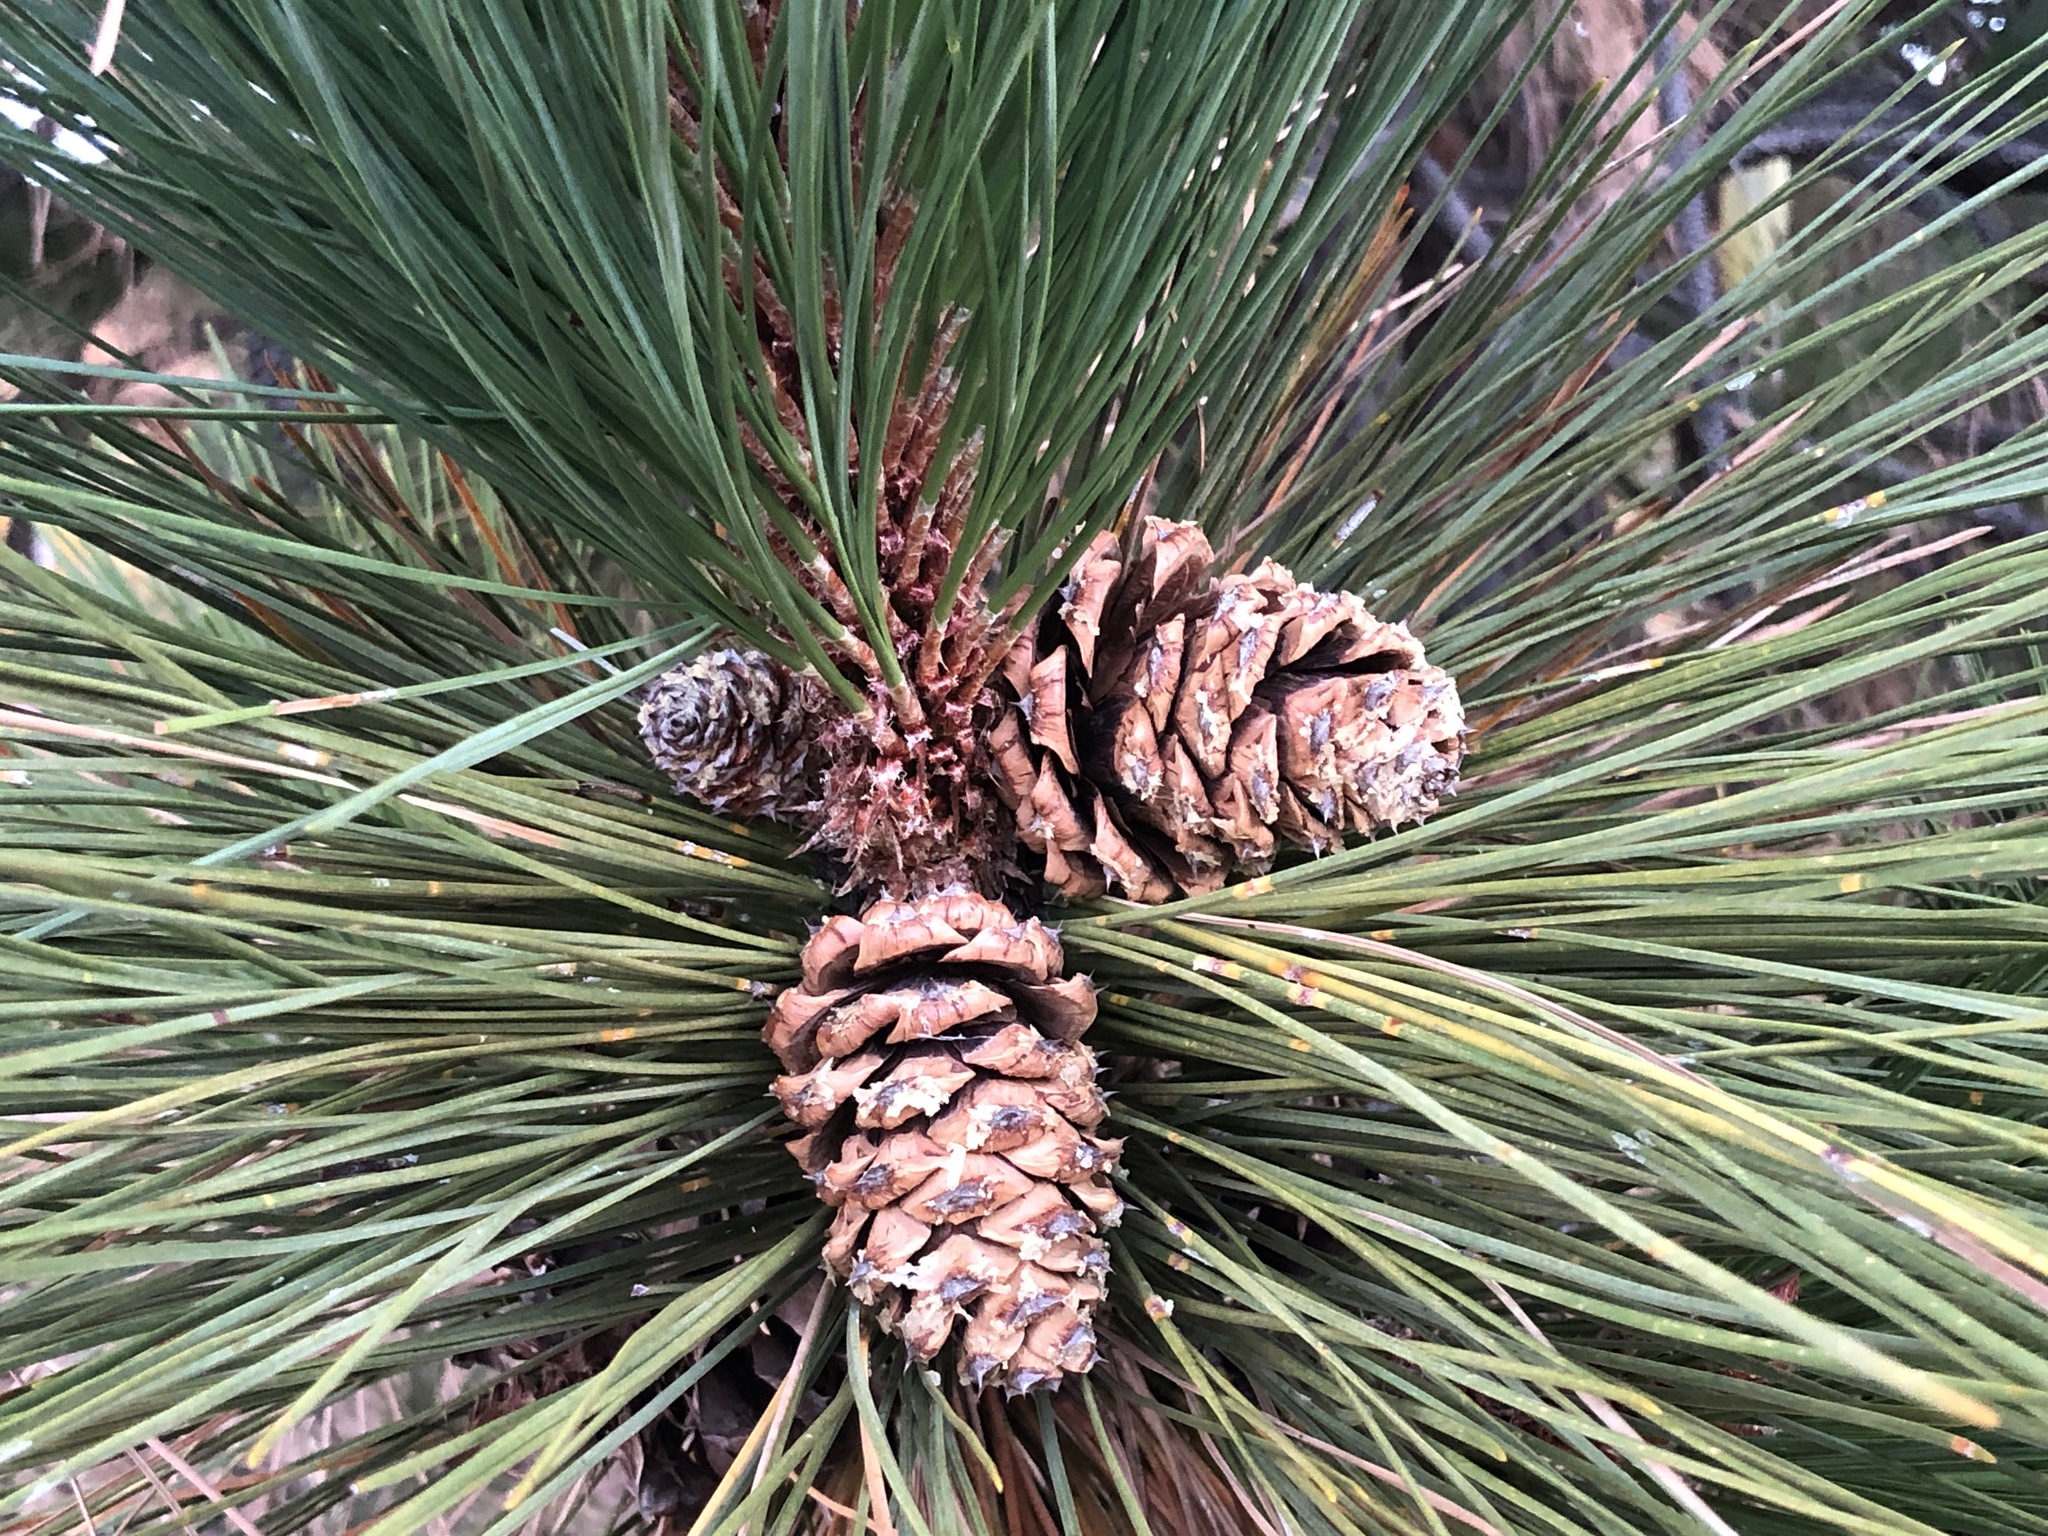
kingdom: Plantae
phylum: Tracheophyta
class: Pinopsida
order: Pinales
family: Pinaceae
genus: Pinus
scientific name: Pinus ponderosa
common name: Western yellow-pine
